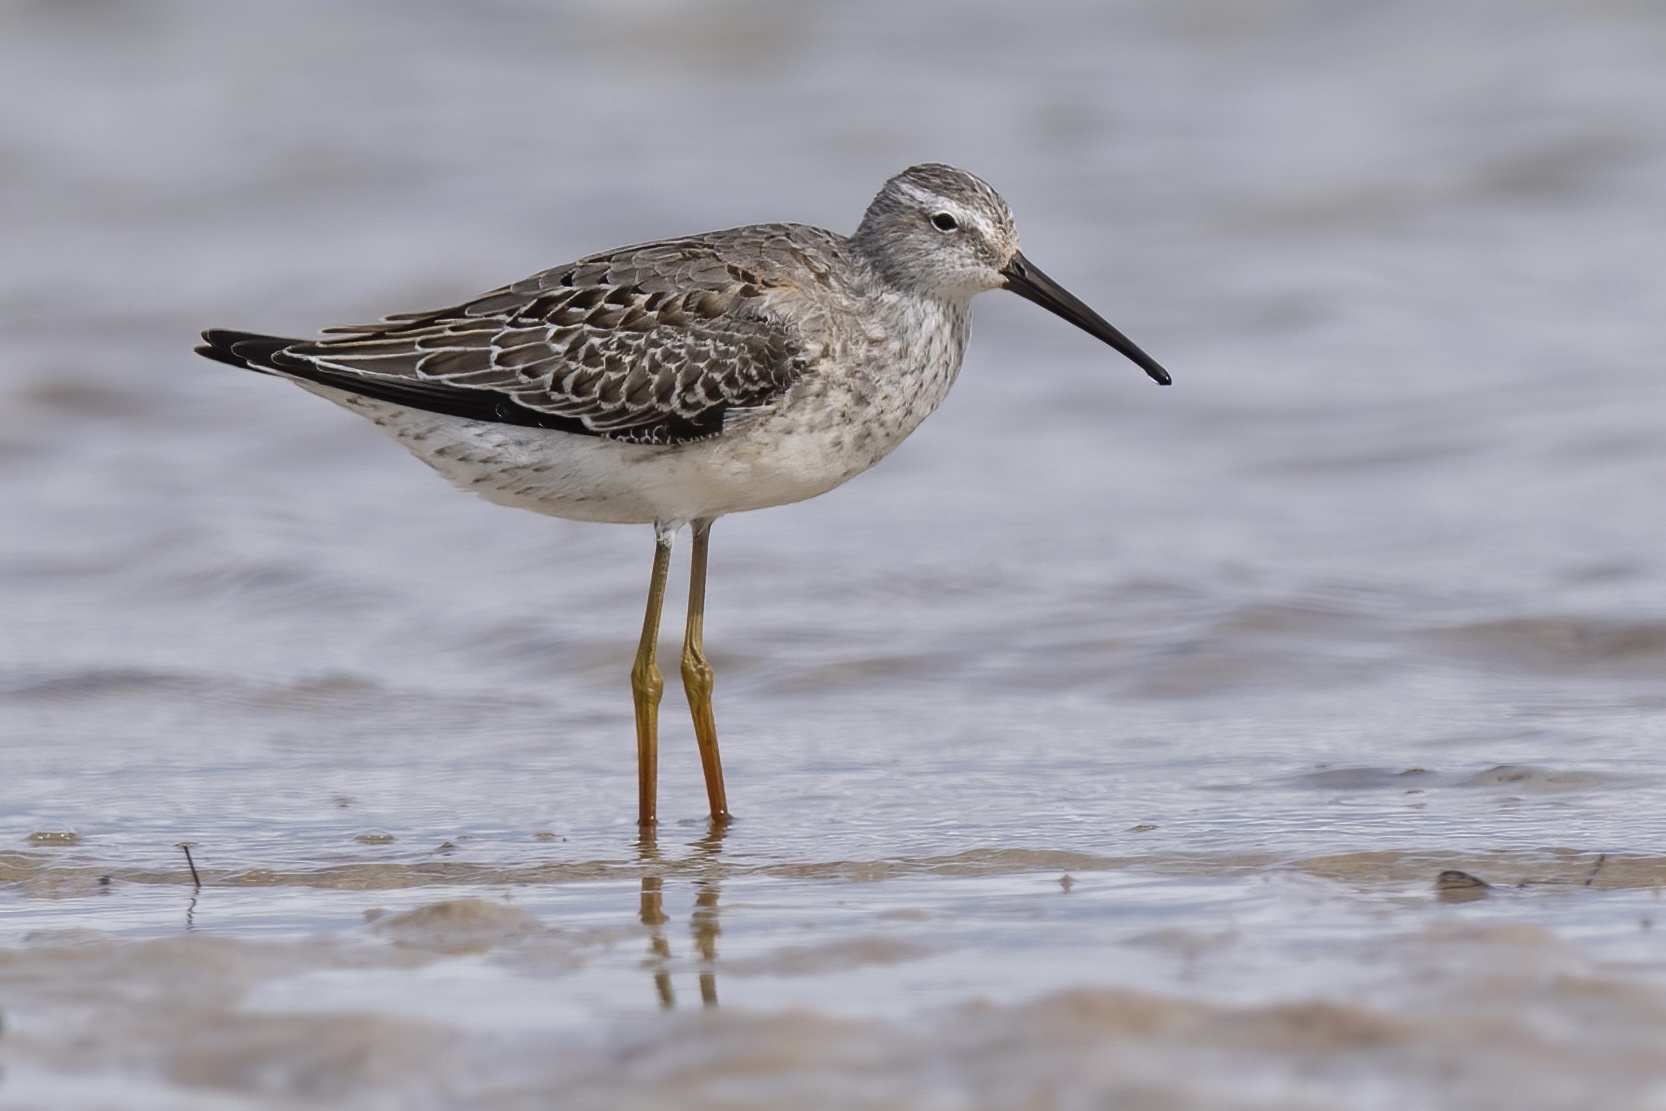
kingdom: Animalia
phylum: Chordata
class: Aves
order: Charadriiformes
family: Scolopacidae
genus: Calidris
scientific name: Calidris himantopus
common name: Stilt sandpiper
